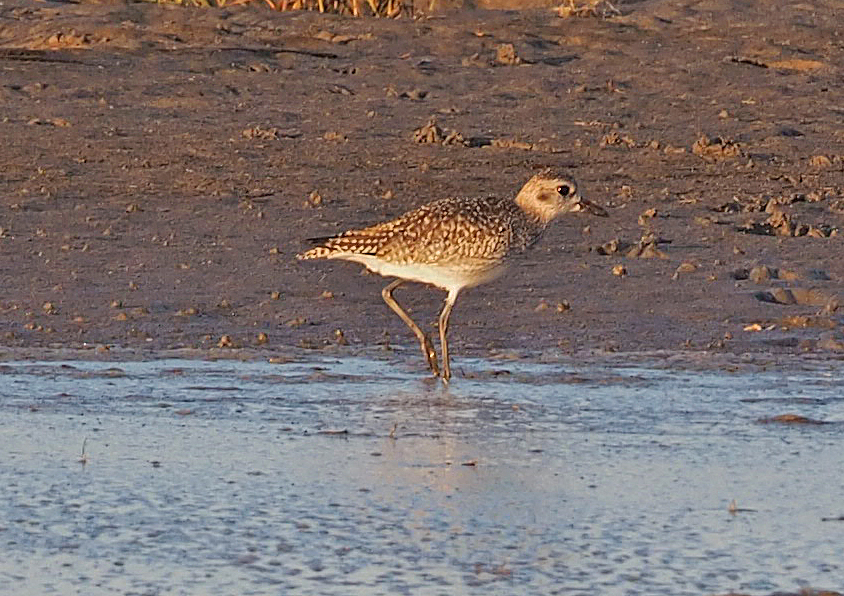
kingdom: Animalia
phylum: Chordata
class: Aves
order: Charadriiformes
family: Charadriidae
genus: Pluvialis
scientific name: Pluvialis squatarola
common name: Grey plover
